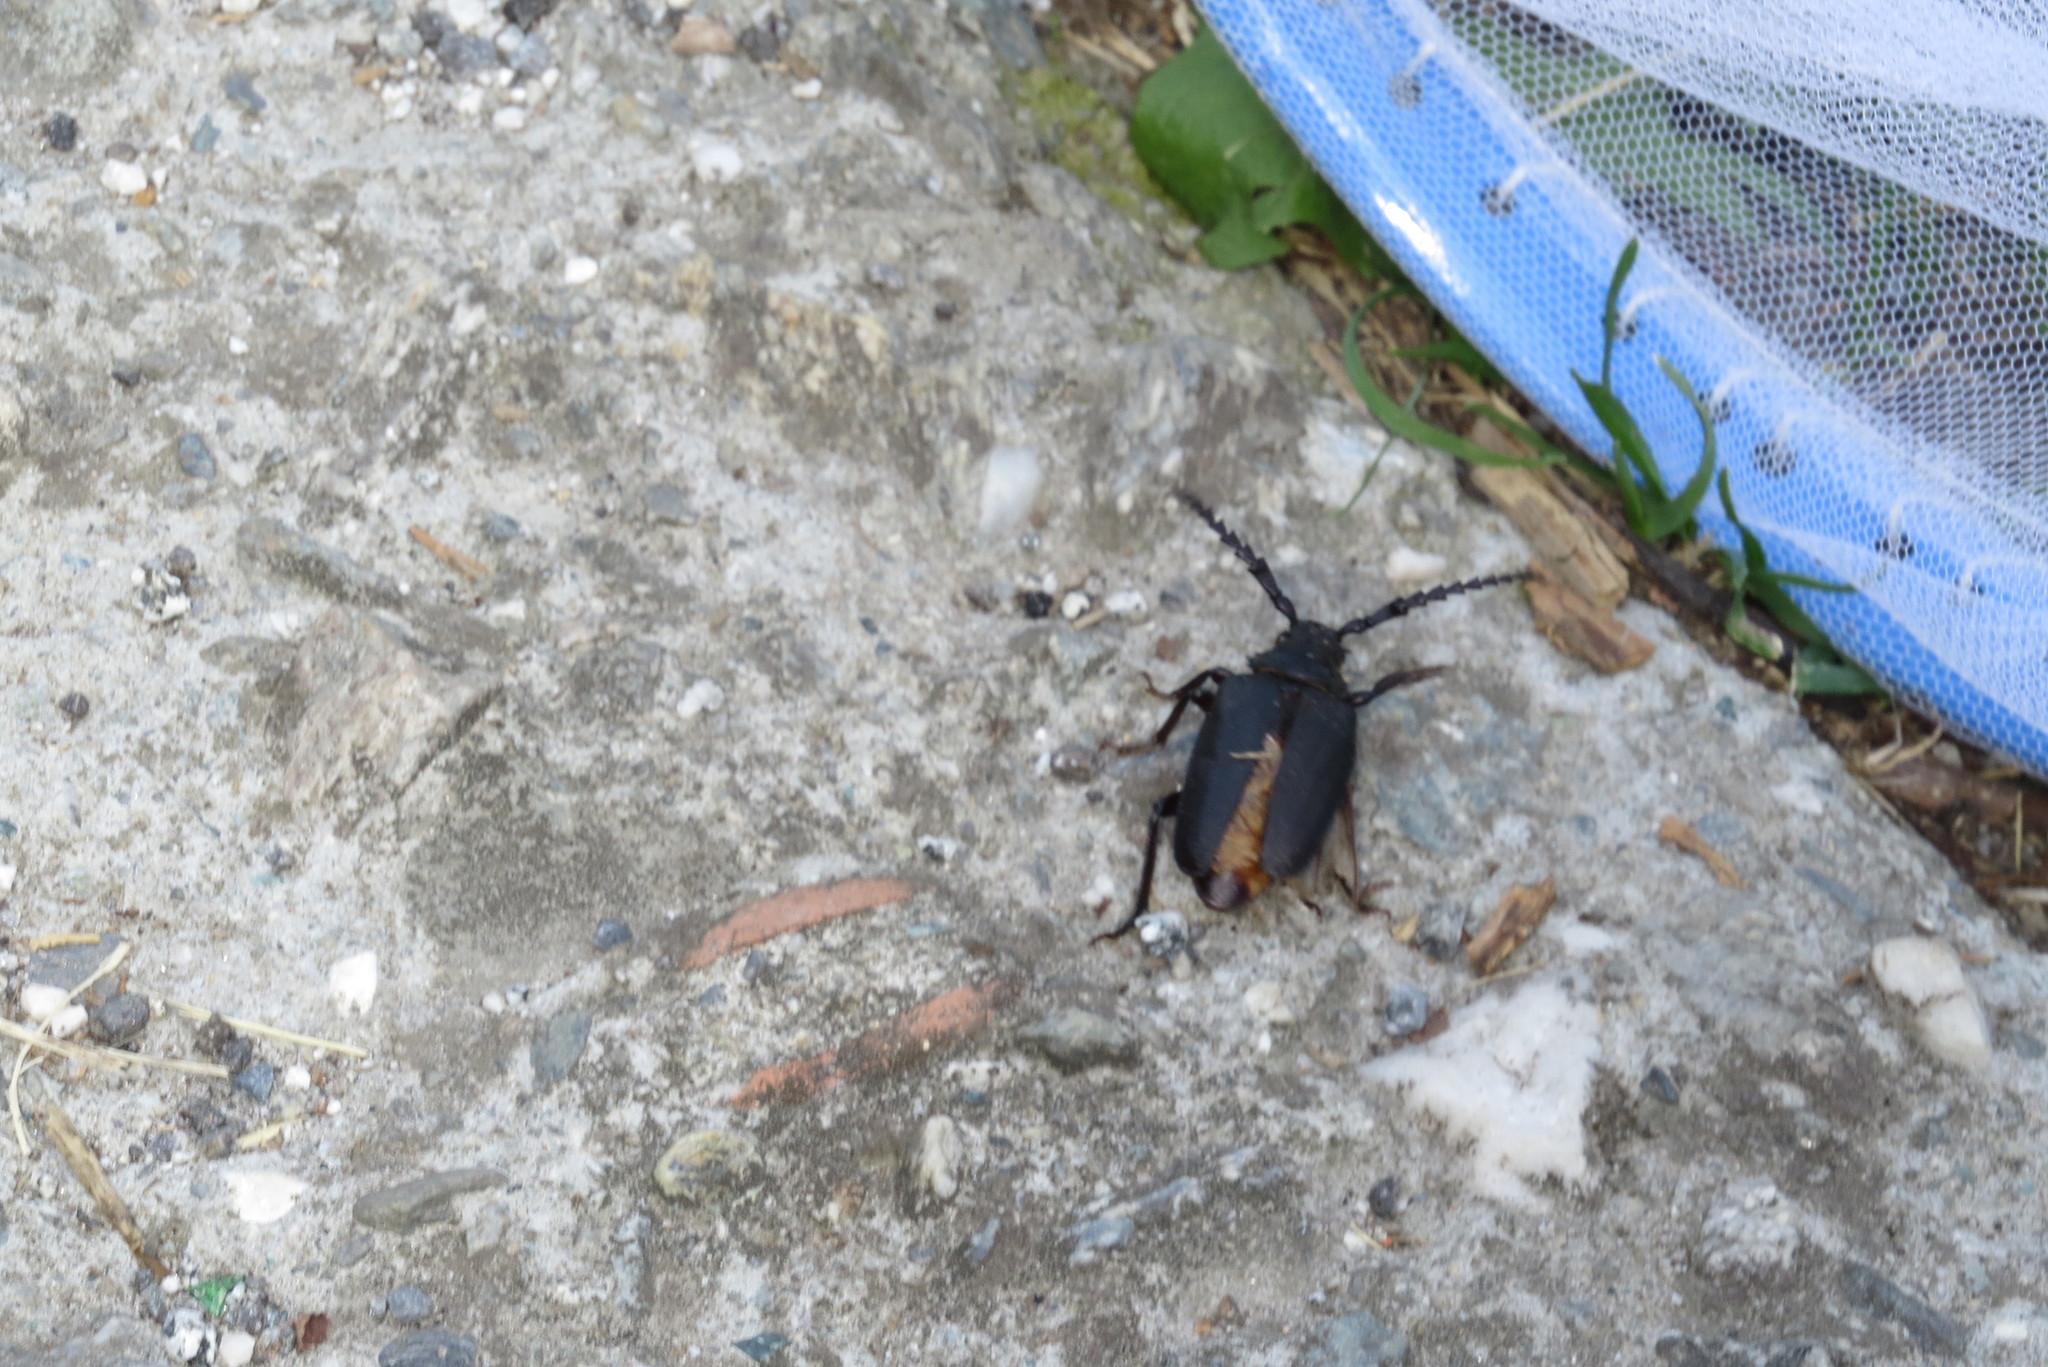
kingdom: Animalia
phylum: Arthropoda
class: Insecta
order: Coleoptera
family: Cerambycidae
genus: Prionus
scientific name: Prionus coriarius
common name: Tanner beetle
